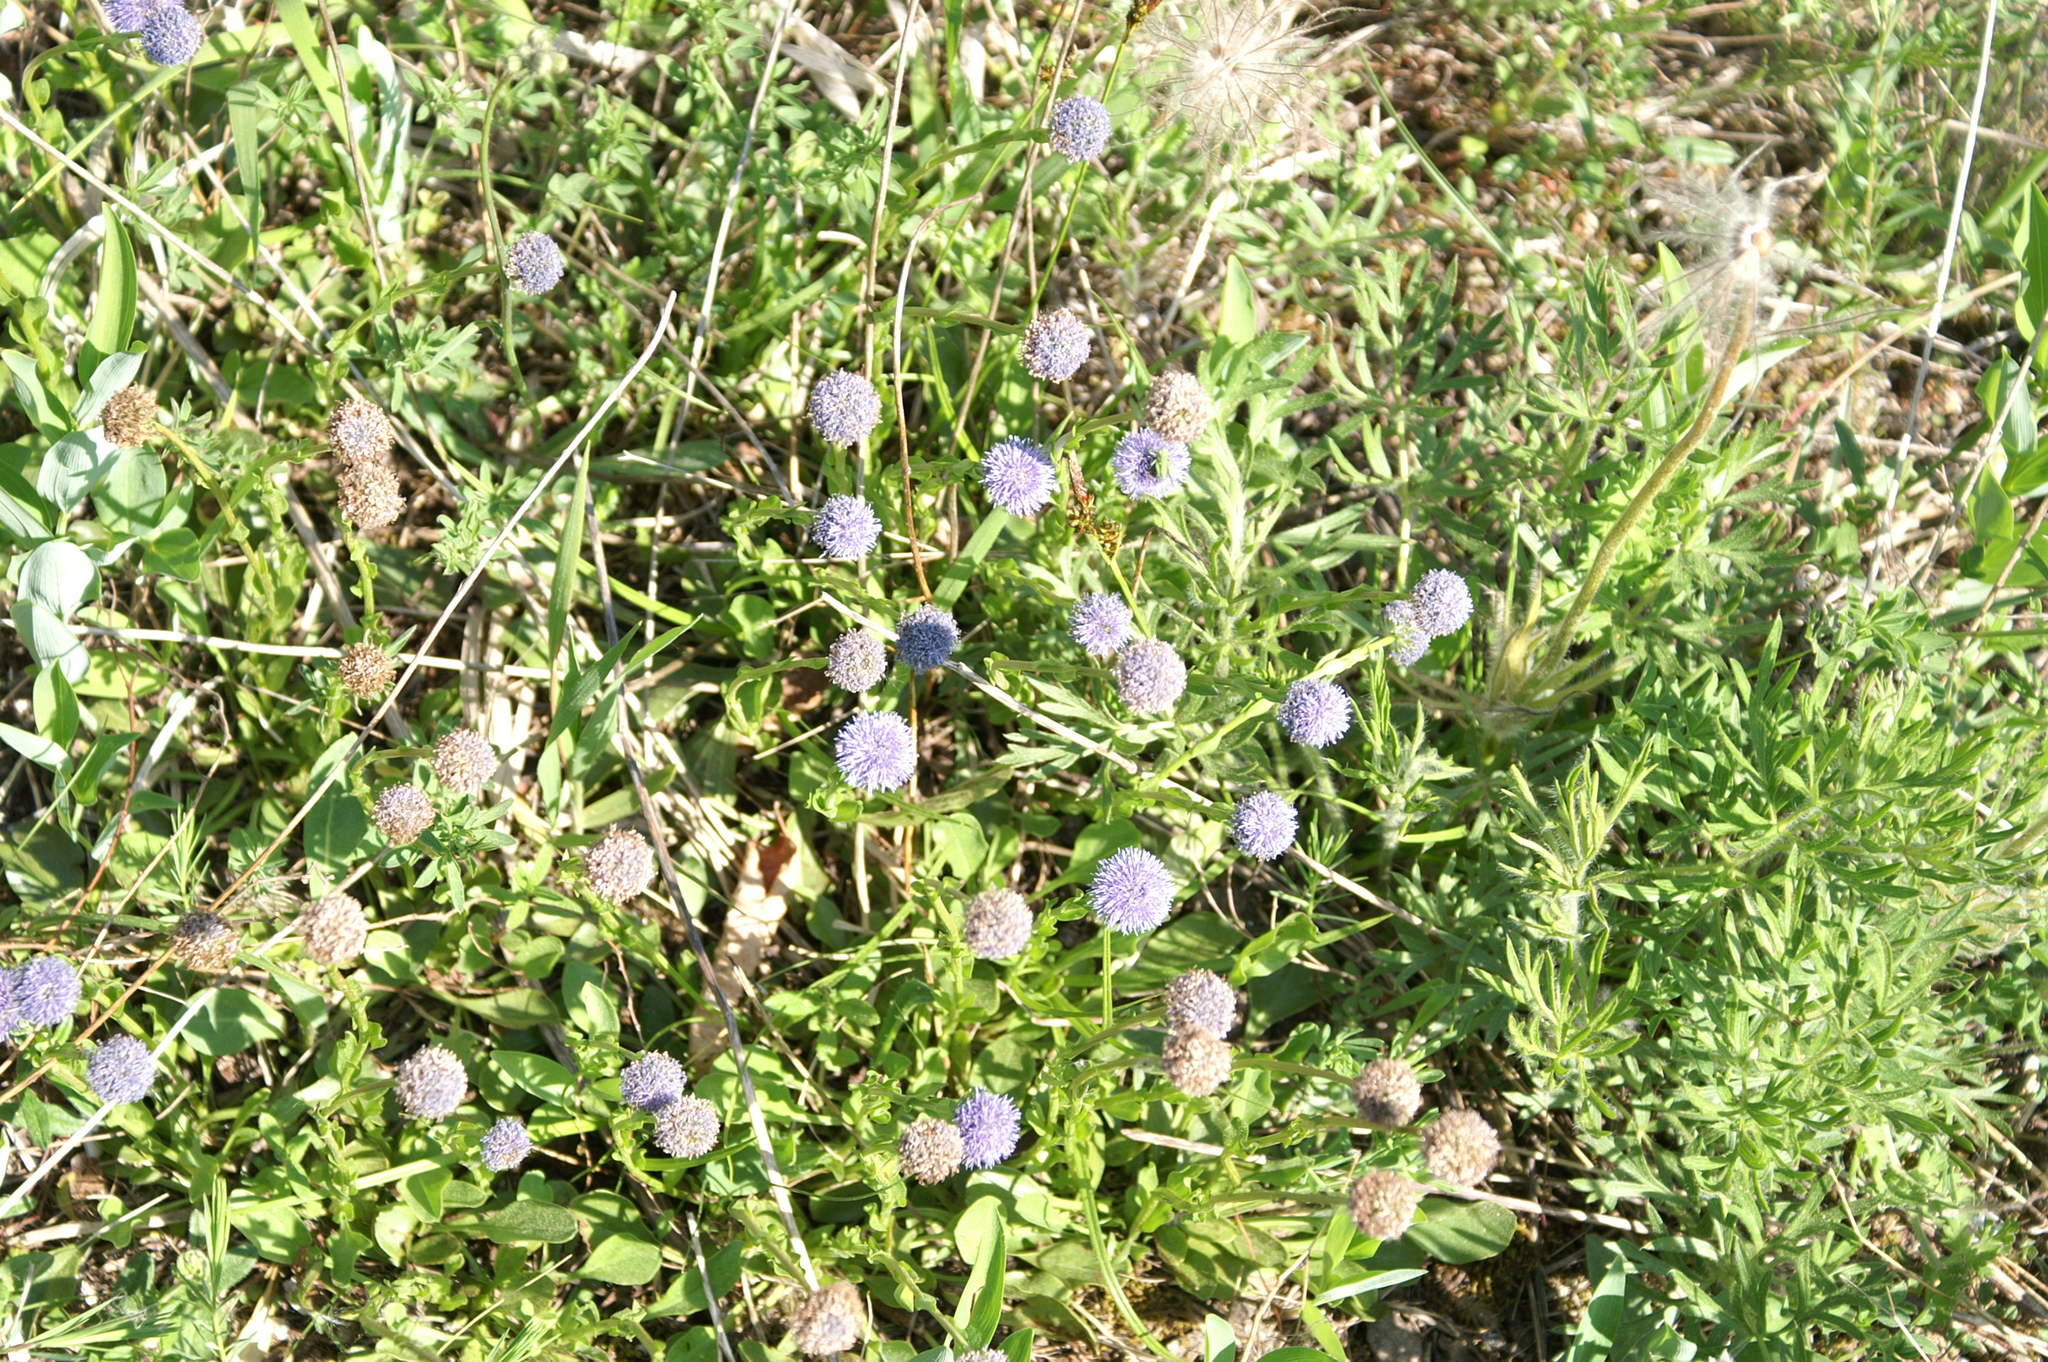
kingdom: Plantae
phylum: Tracheophyta
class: Magnoliopsida
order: Lamiales
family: Plantaginaceae
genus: Globularia
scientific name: Globularia bisnagarica
